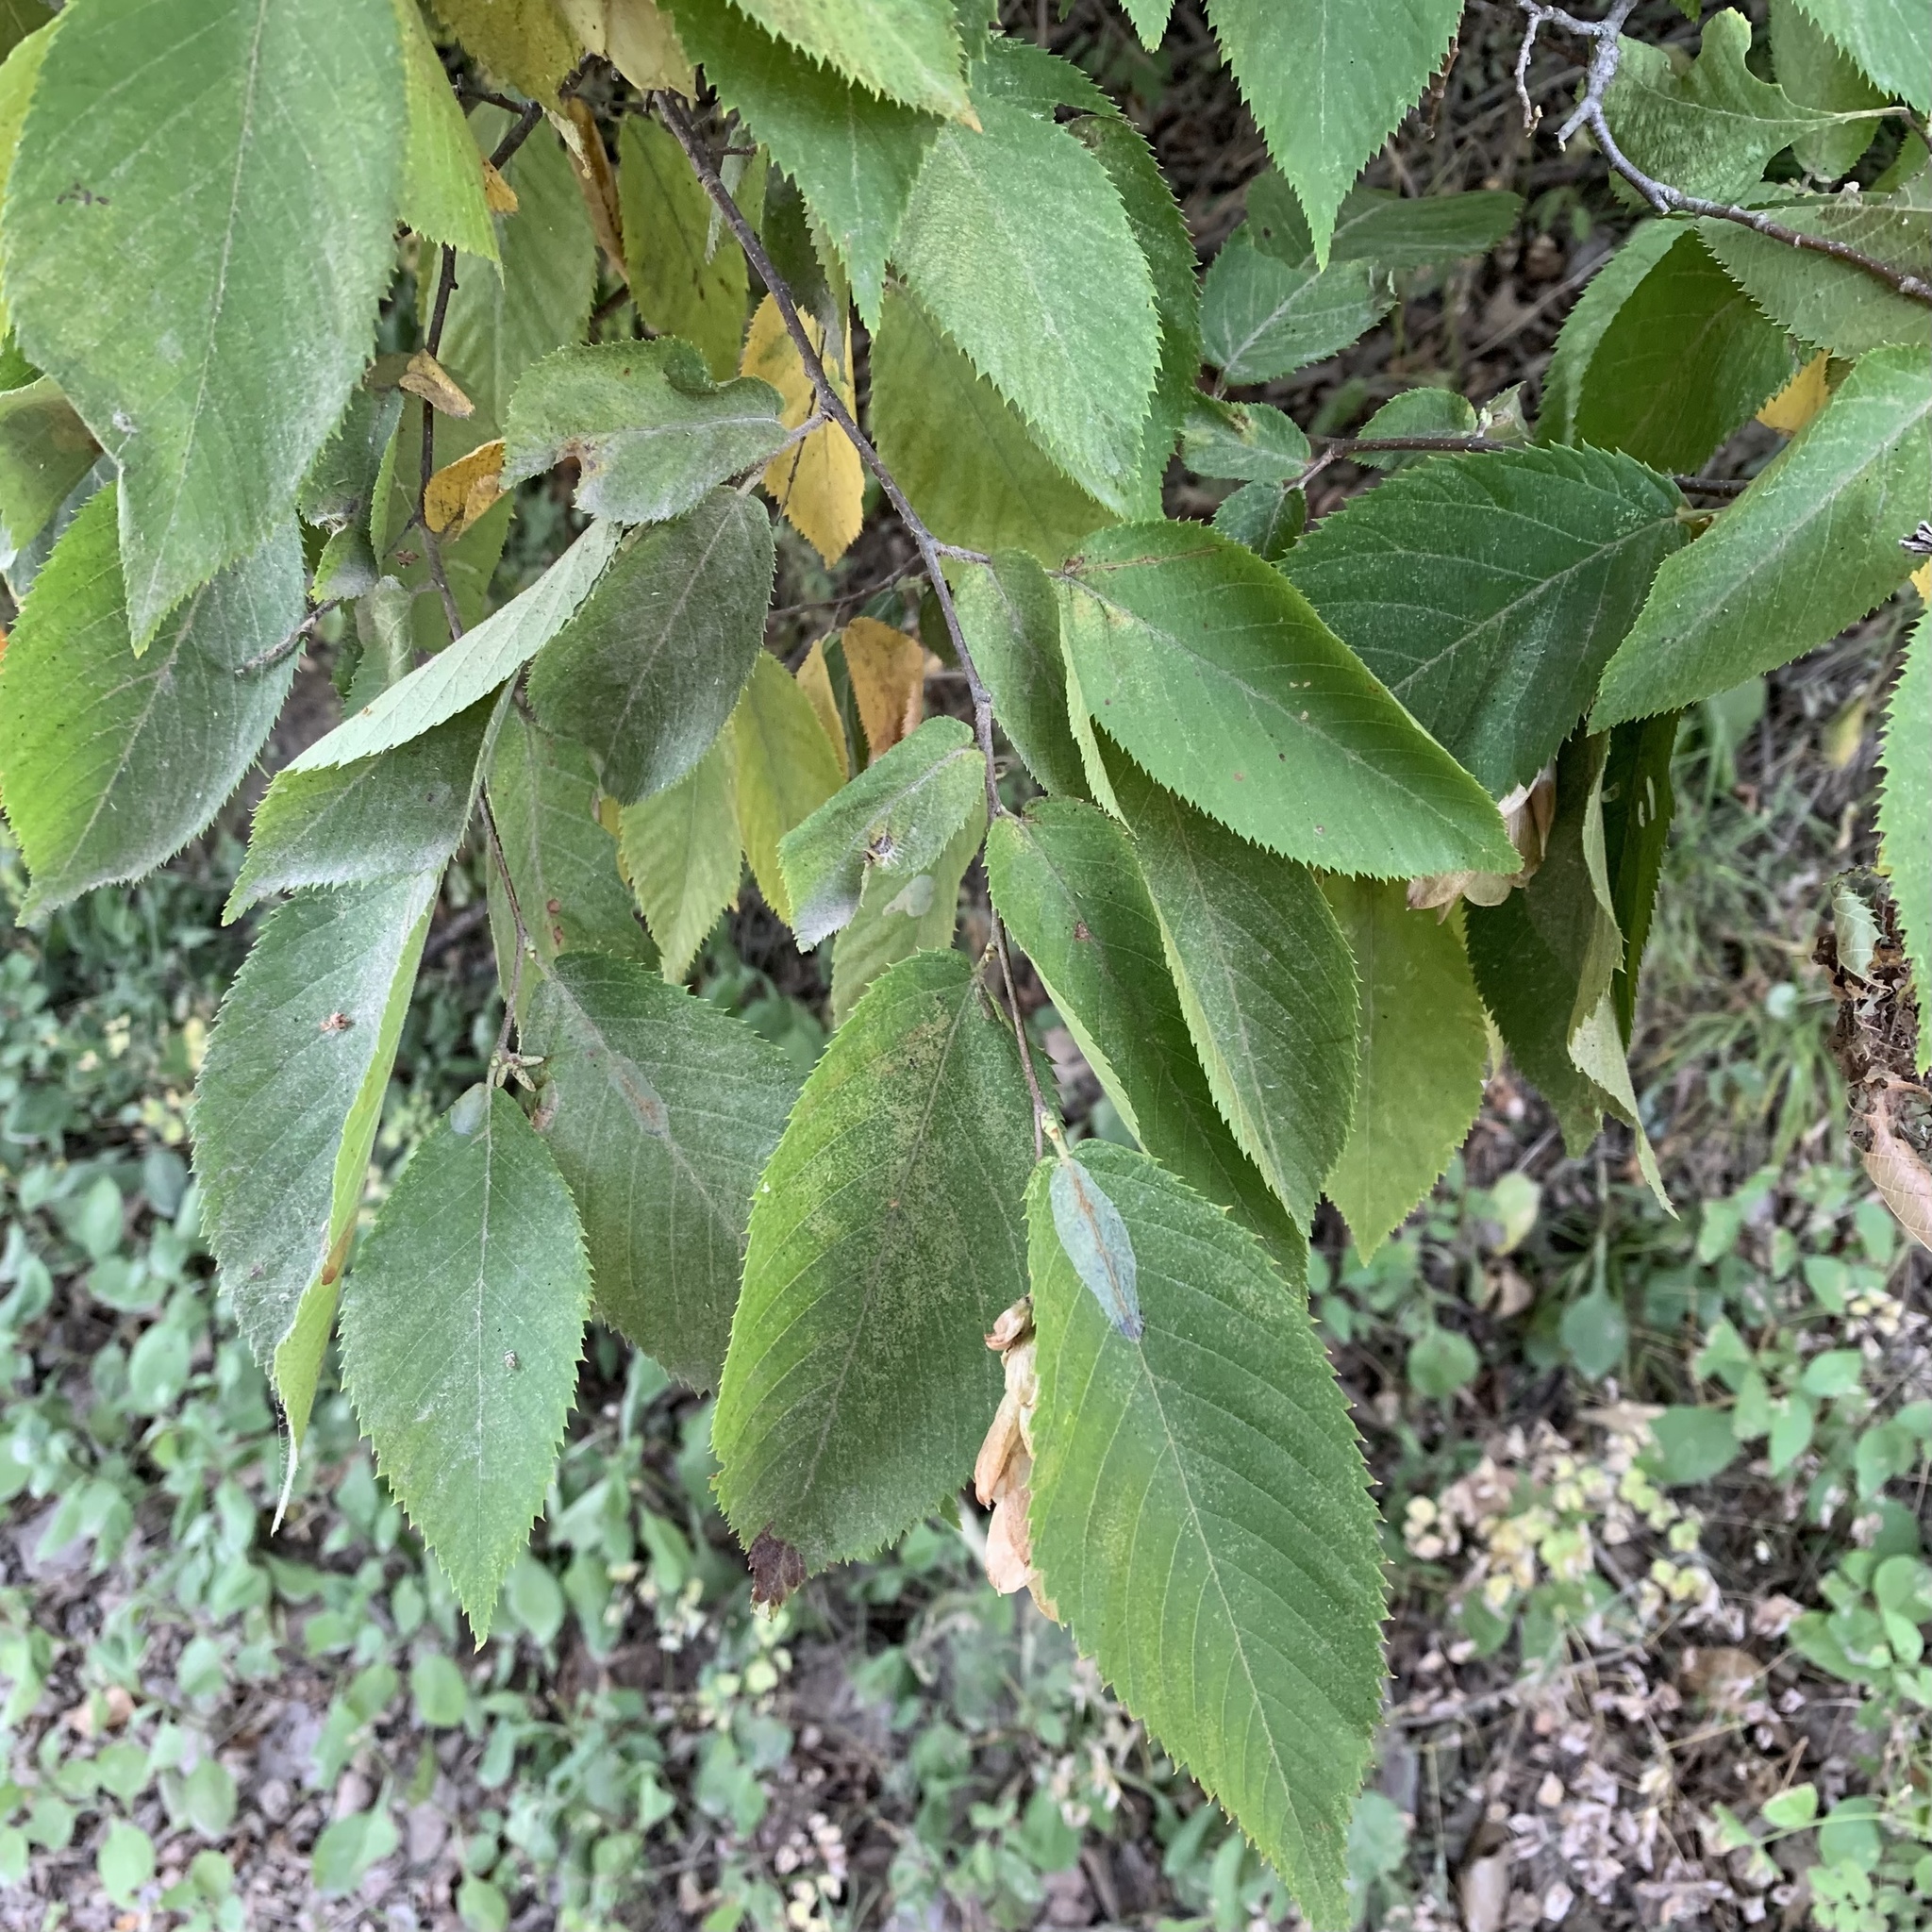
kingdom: Plantae
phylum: Tracheophyta
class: Magnoliopsida
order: Fagales
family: Betulaceae
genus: Ostrya
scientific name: Ostrya virginiana
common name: Ironwood
